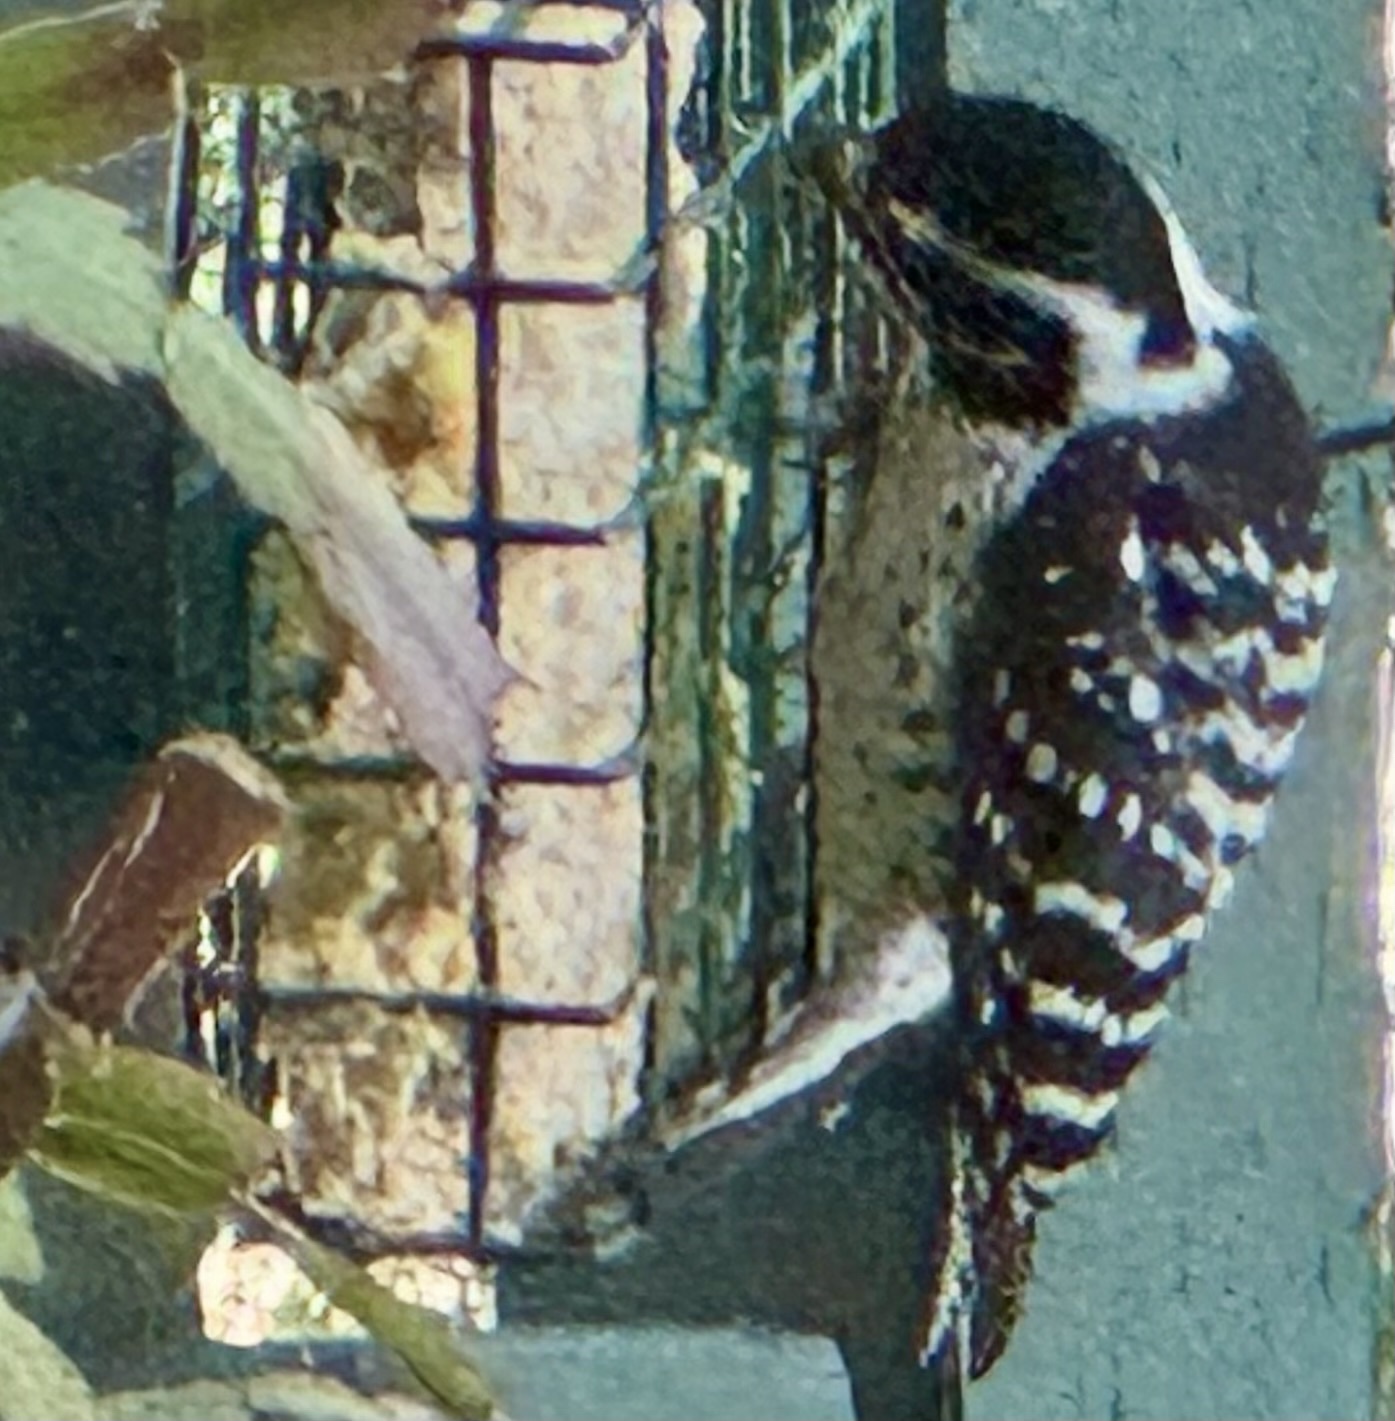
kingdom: Animalia
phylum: Chordata
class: Aves
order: Piciformes
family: Picidae
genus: Dryobates
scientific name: Dryobates nuttallii
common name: Nuttall's woodpecker
